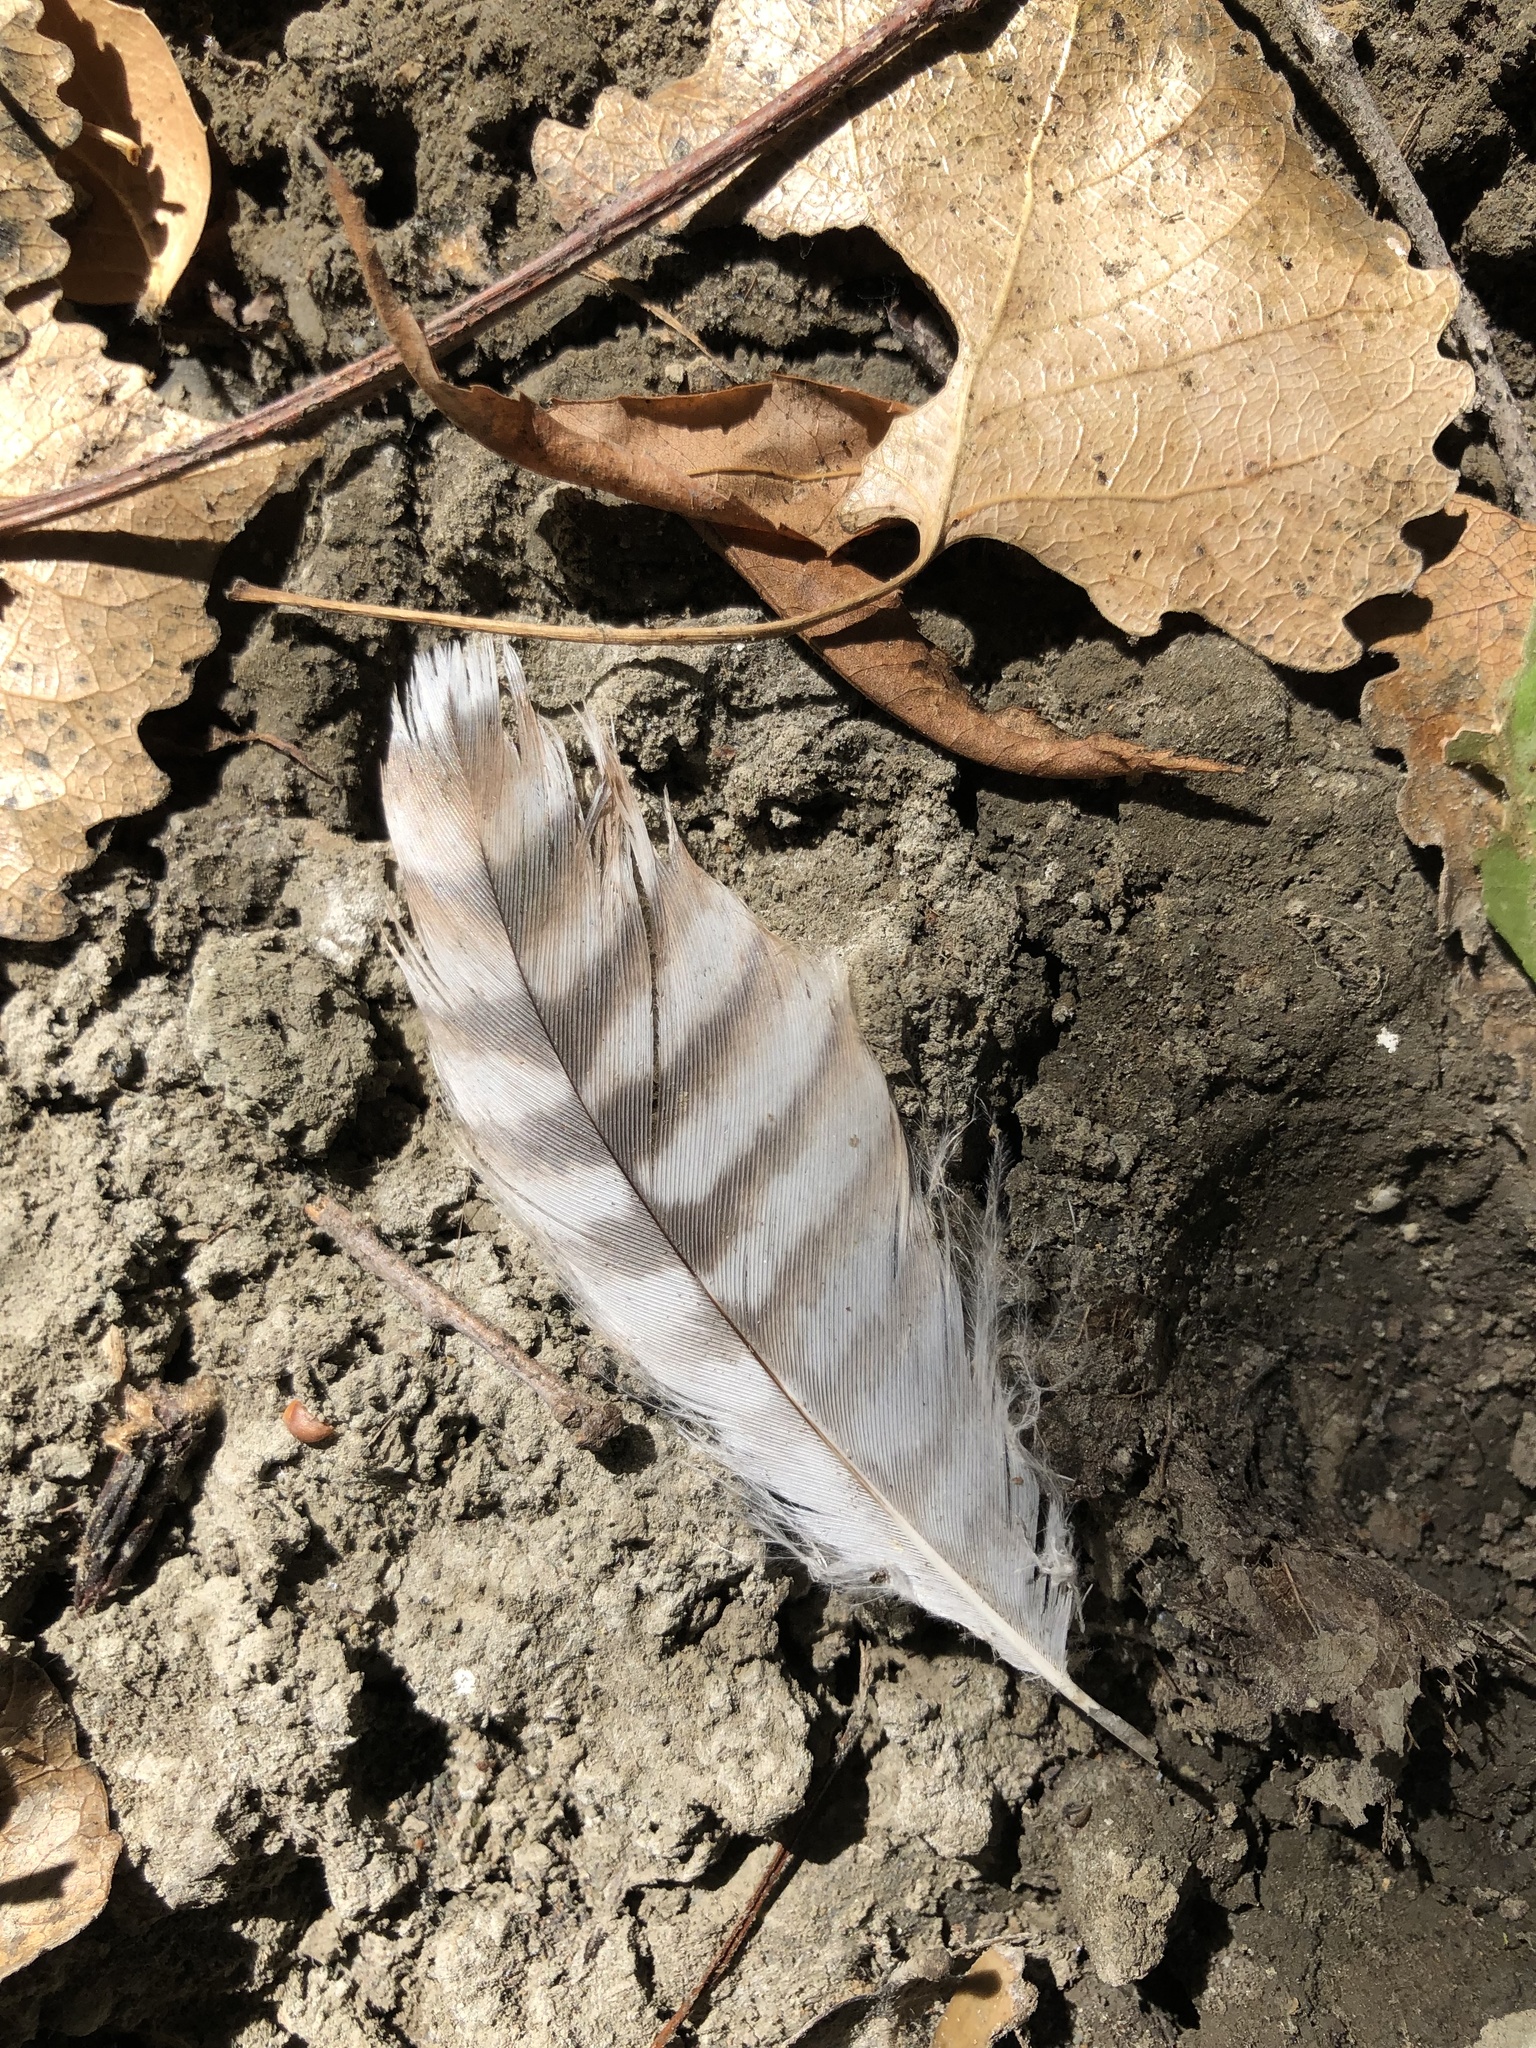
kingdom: Animalia
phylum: Chordata
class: Aves
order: Accipitriformes
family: Accipitridae
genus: Buteo
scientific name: Buteo lineatus
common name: Red-shouldered hawk
